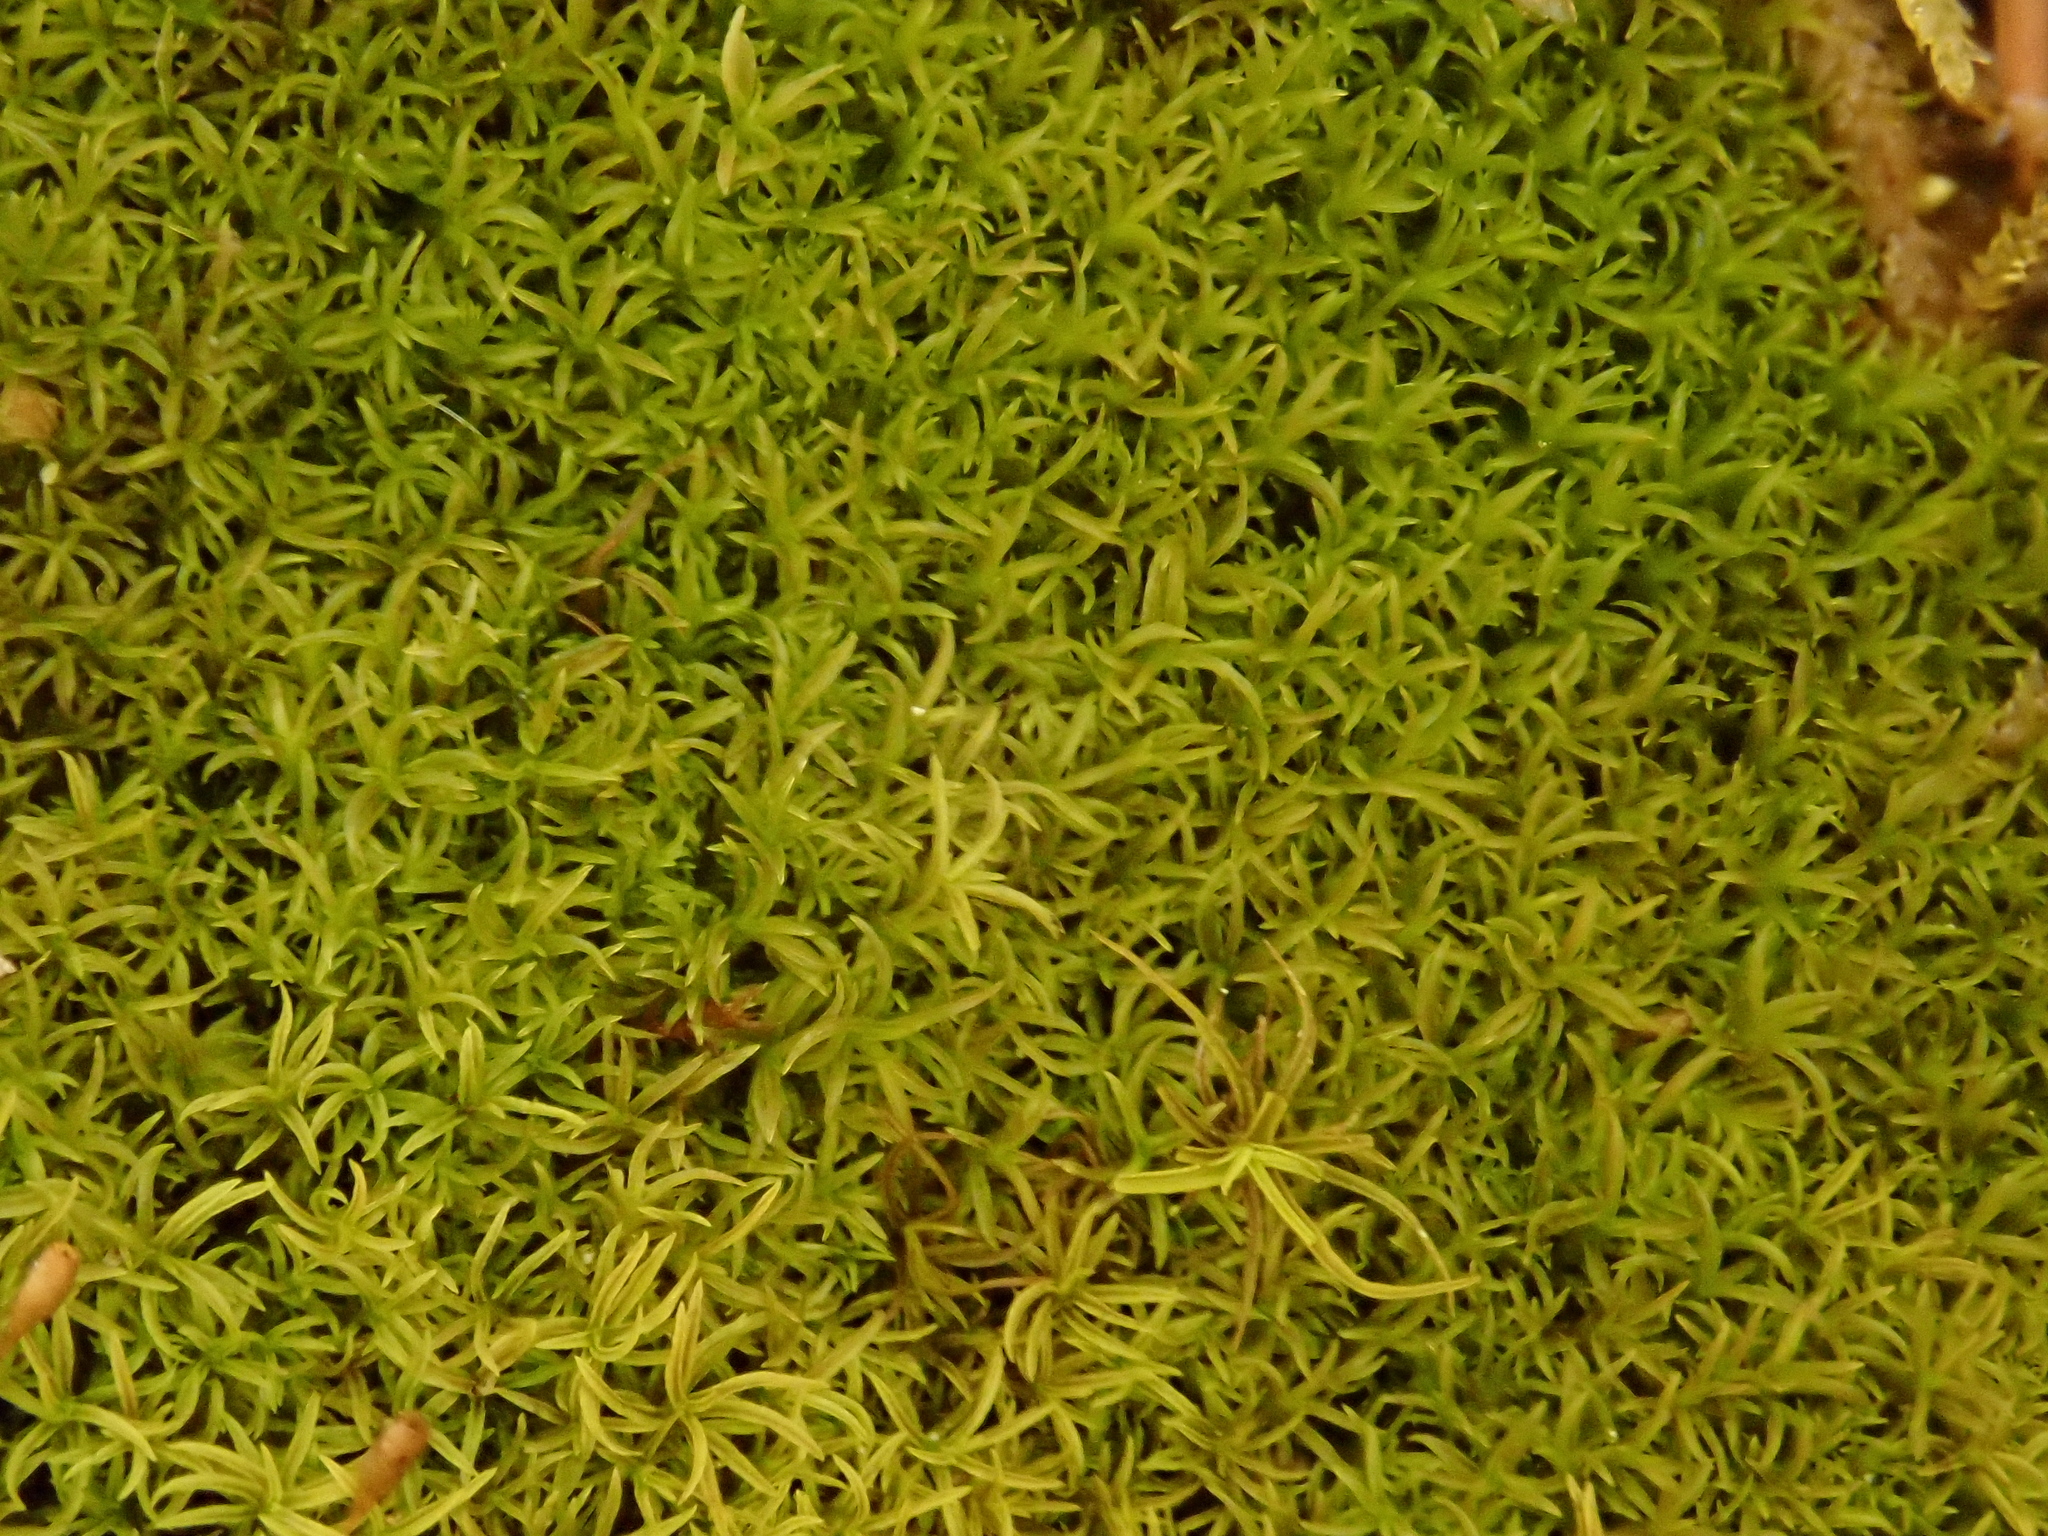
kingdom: Plantae
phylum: Bryophyta
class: Bryopsida
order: Pottiales
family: Pottiaceae
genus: Gymnostomum
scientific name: Gymnostomum aeruginosum
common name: Verdigris tufa-moss
